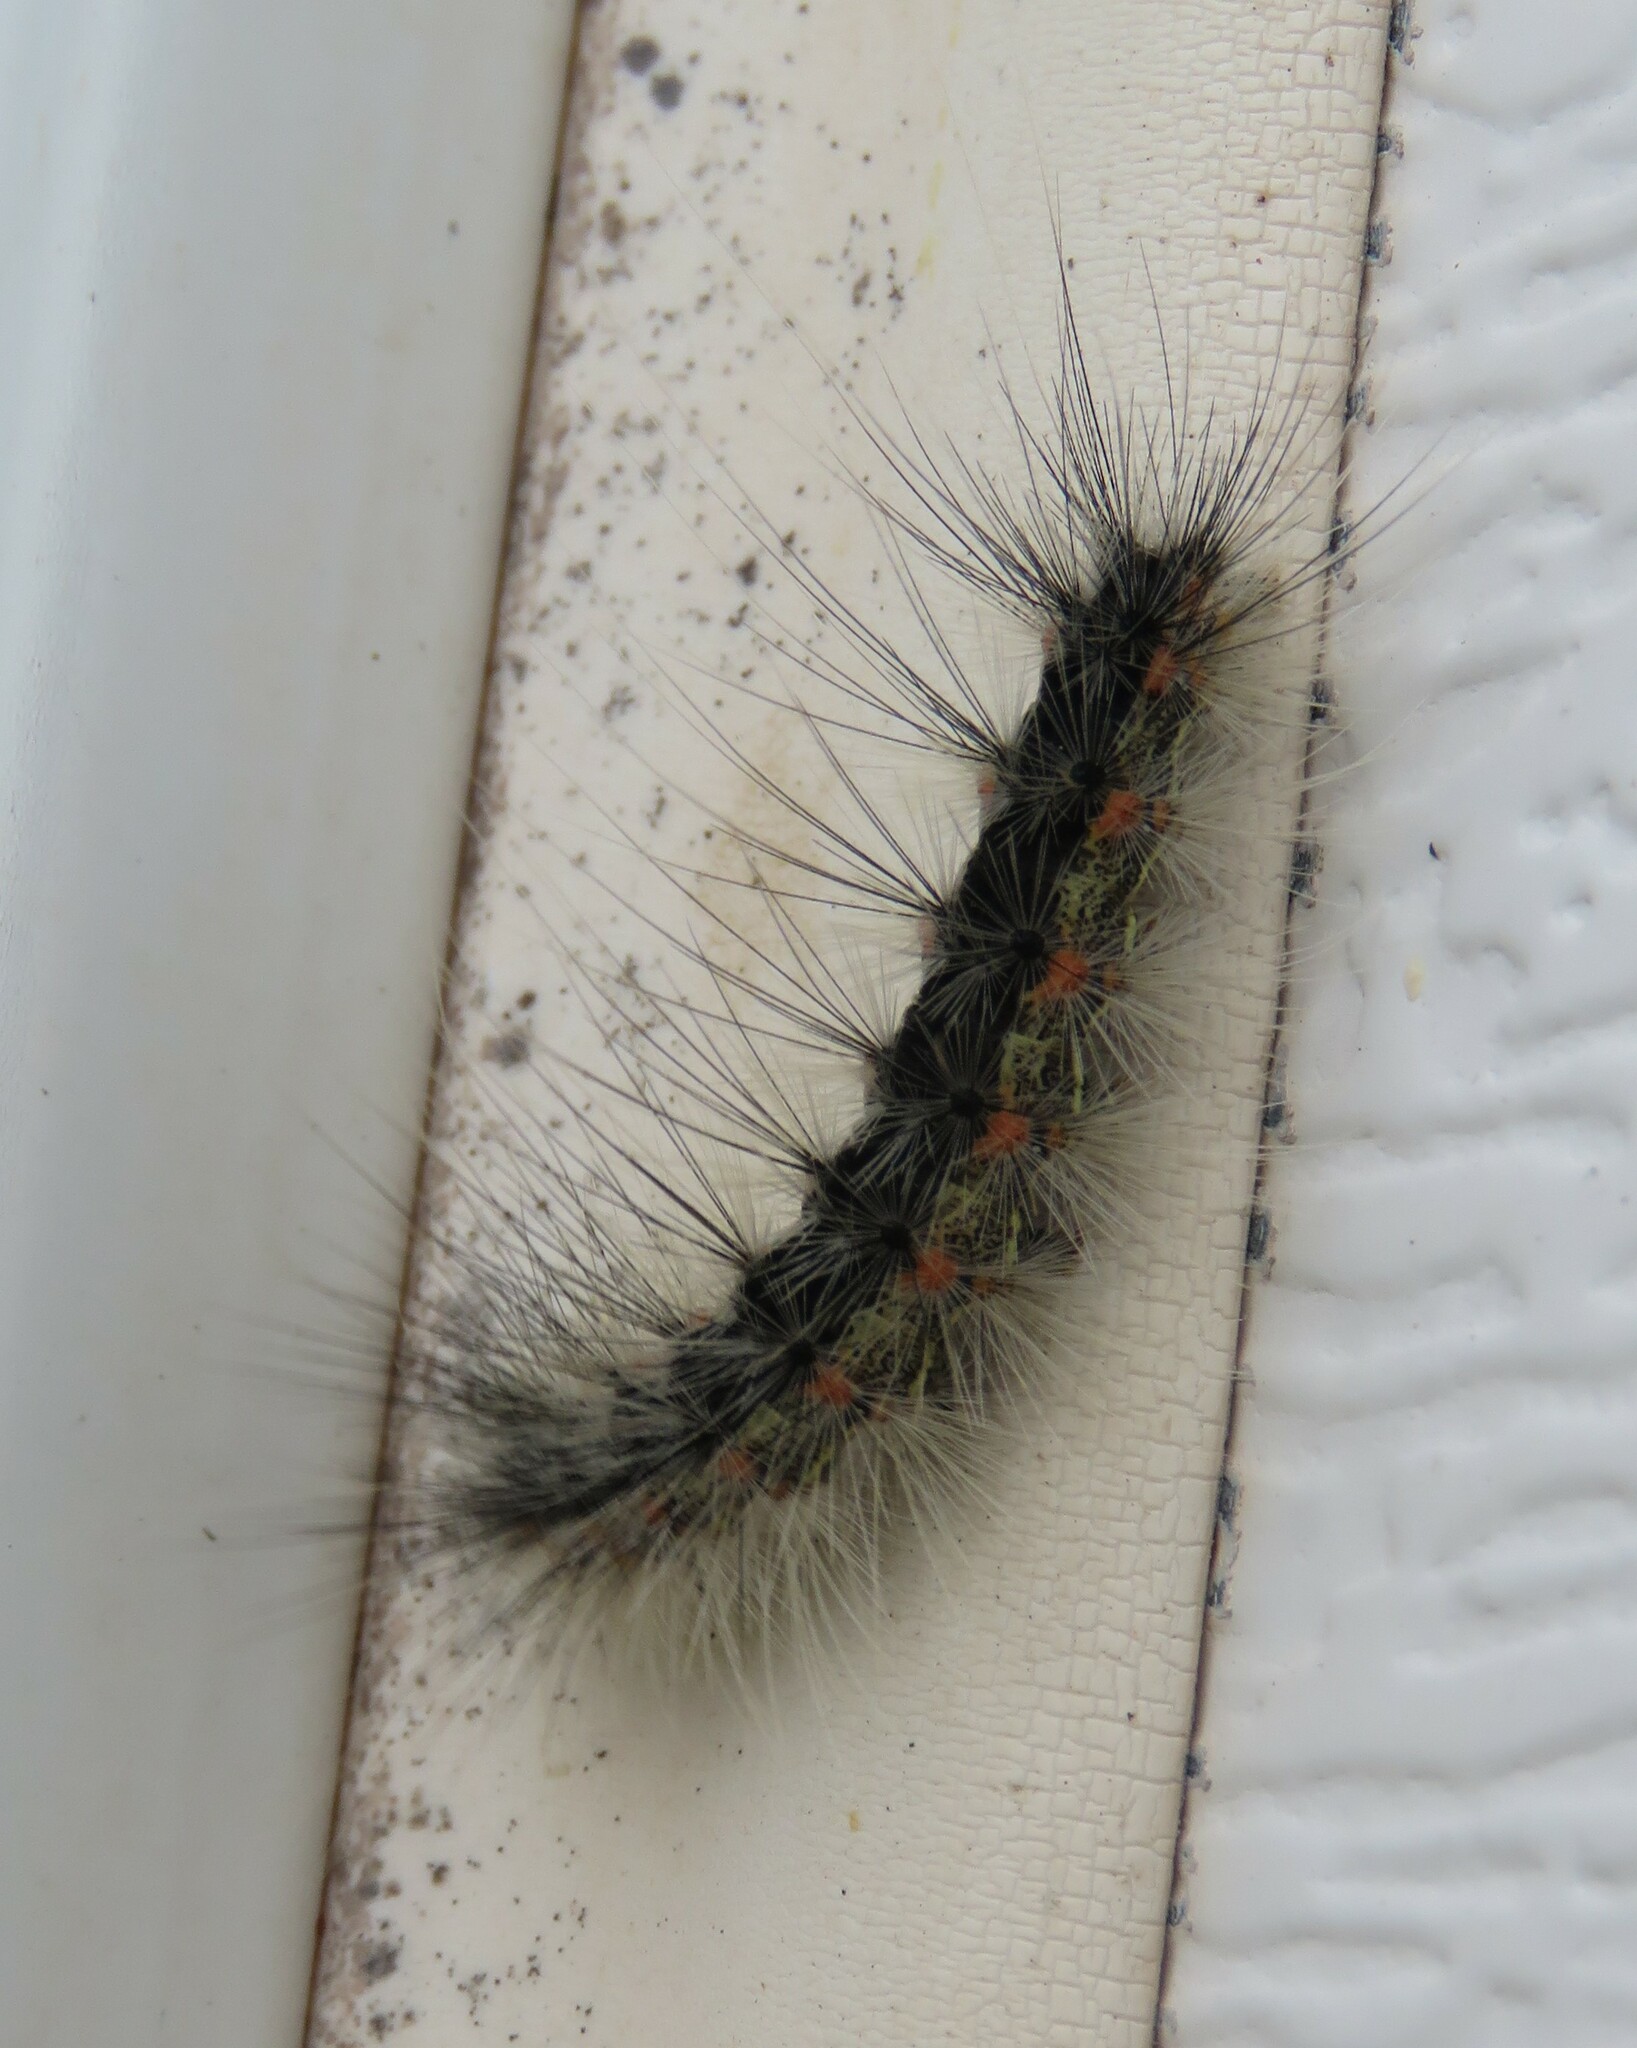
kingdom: Animalia
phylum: Arthropoda
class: Insecta
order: Lepidoptera
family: Erebidae
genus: Hyphantria
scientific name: Hyphantria cunea
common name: American white moth
